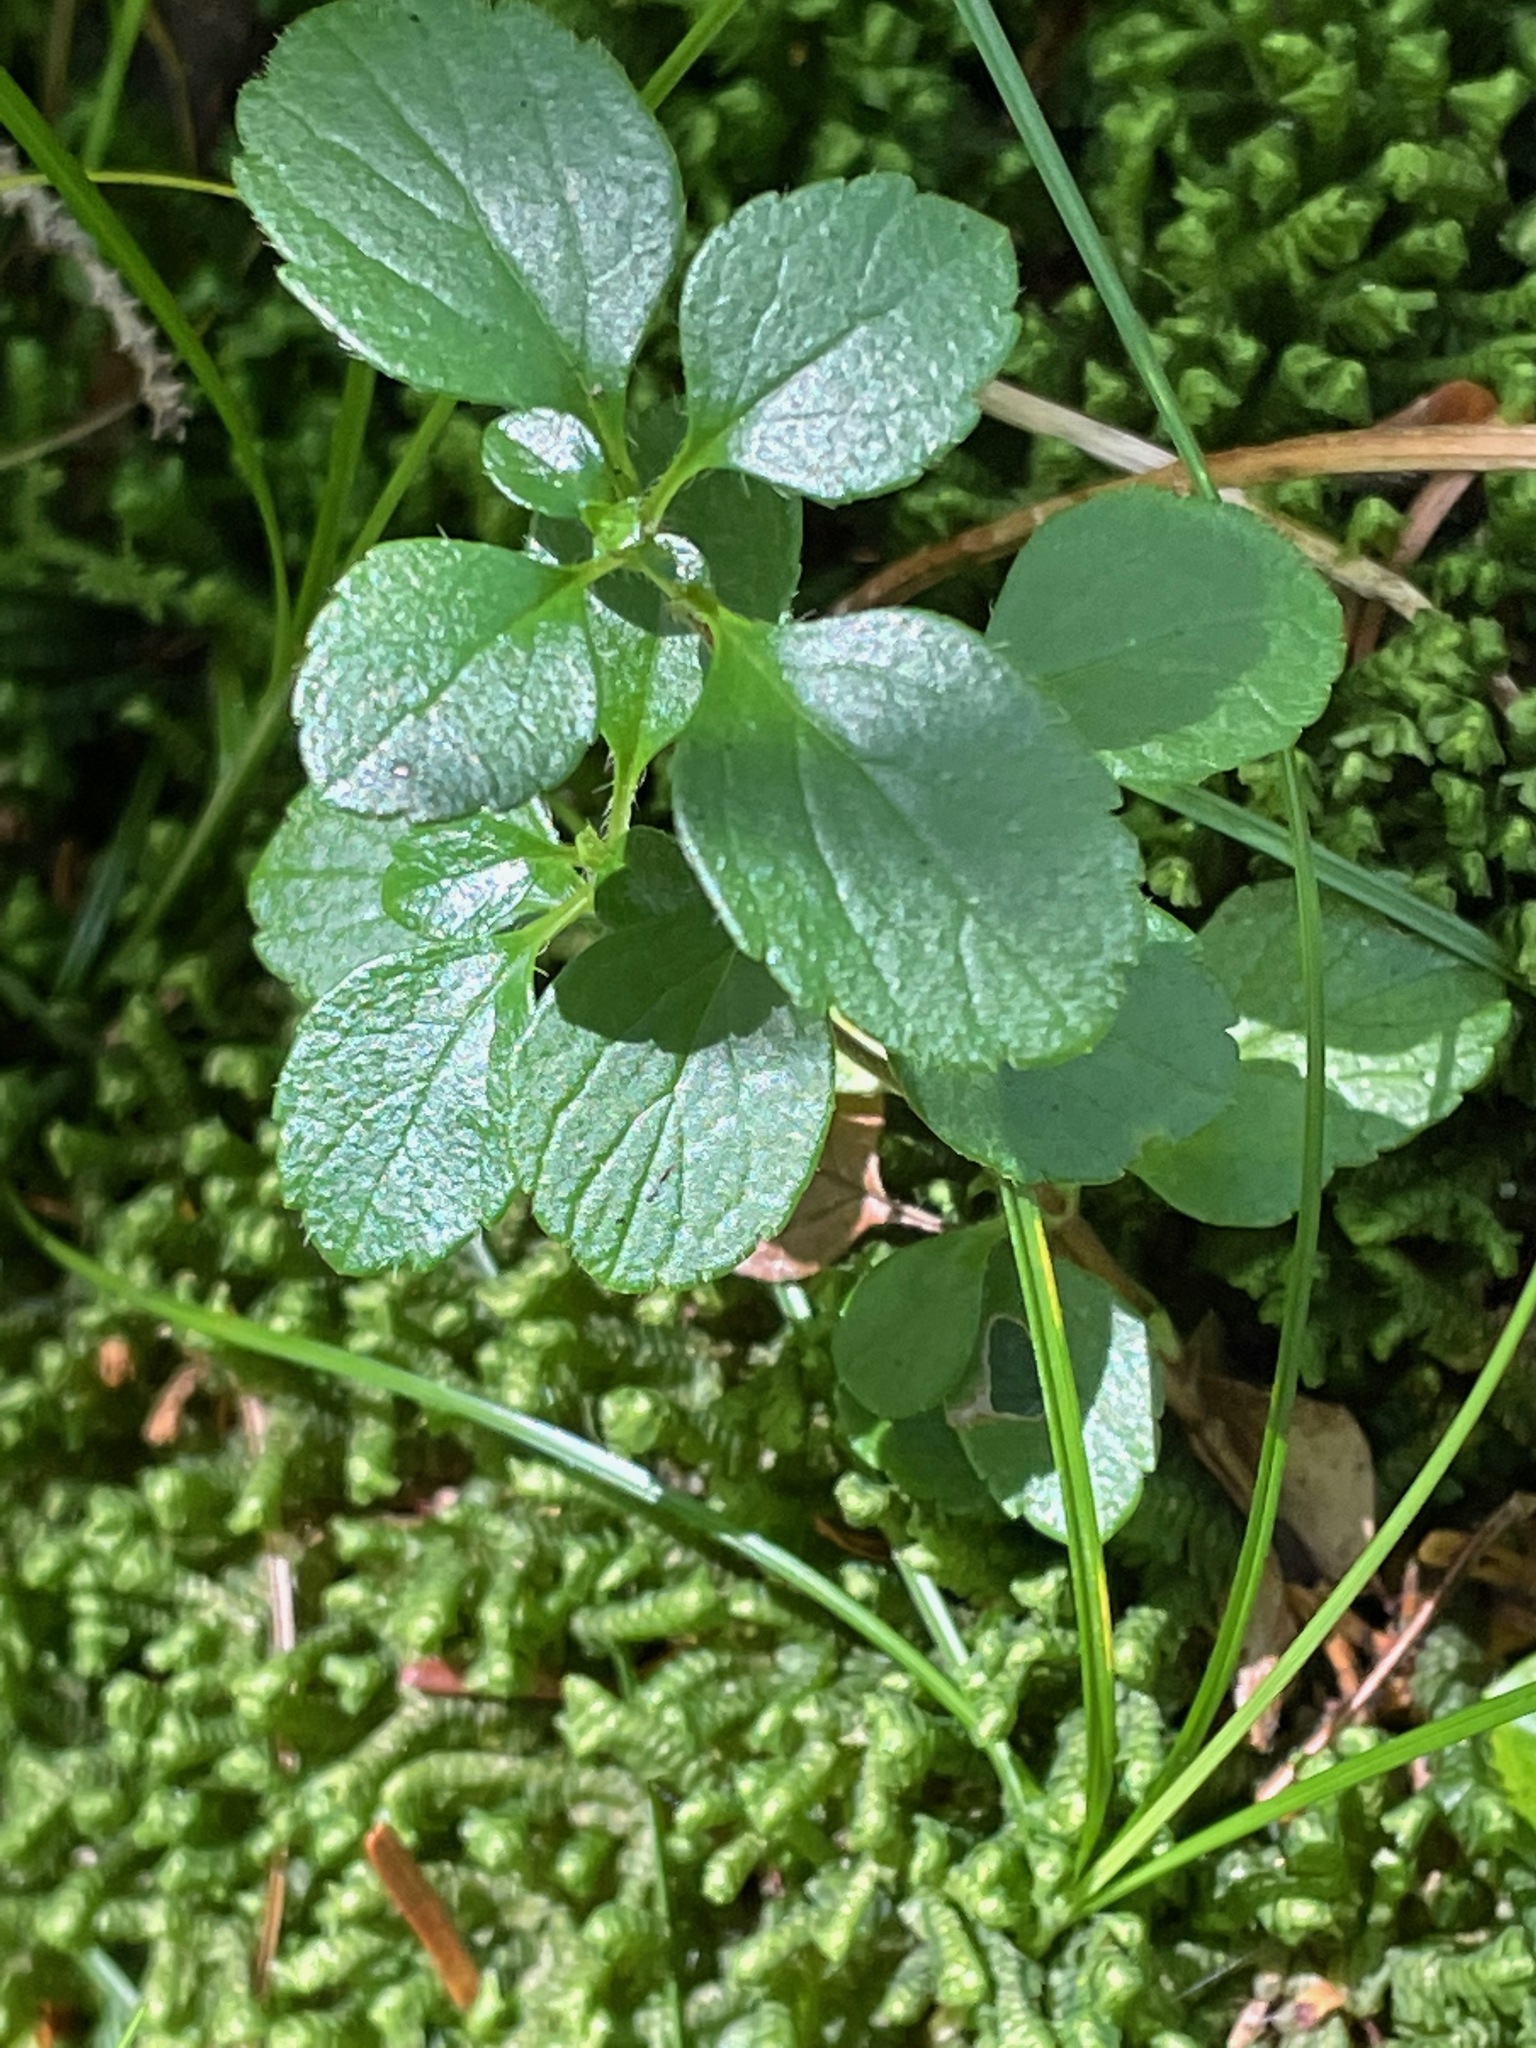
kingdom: Plantae
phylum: Tracheophyta
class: Magnoliopsida
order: Dipsacales
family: Caprifoliaceae
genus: Linnaea
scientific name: Linnaea borealis
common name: Twinflower
